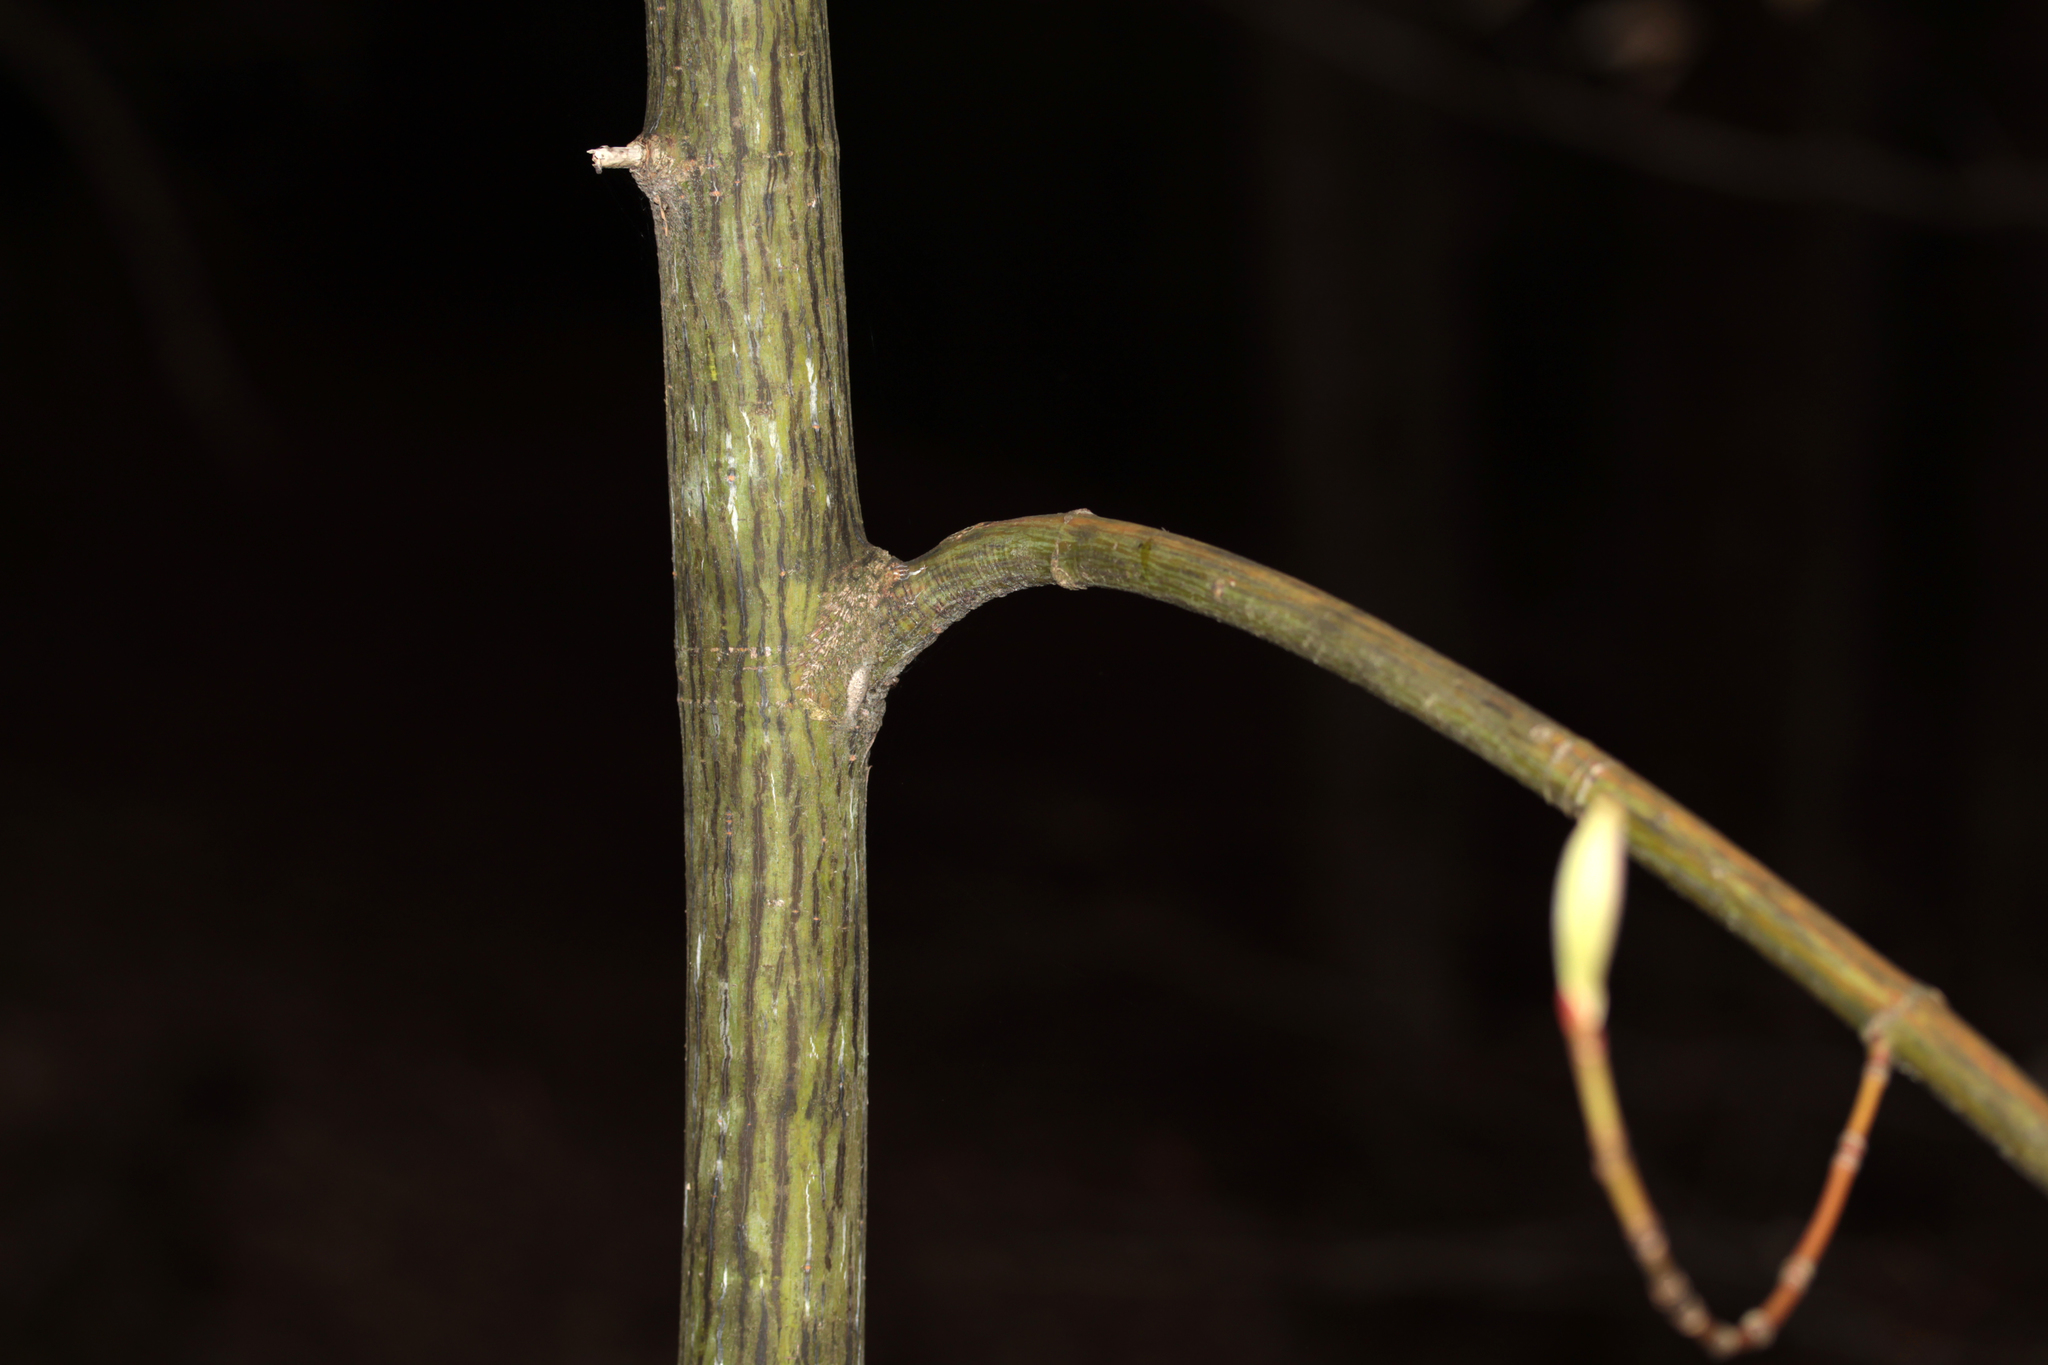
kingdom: Plantae
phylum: Tracheophyta
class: Magnoliopsida
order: Sapindales
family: Sapindaceae
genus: Acer
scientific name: Acer pensylvanicum
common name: Moosewood
